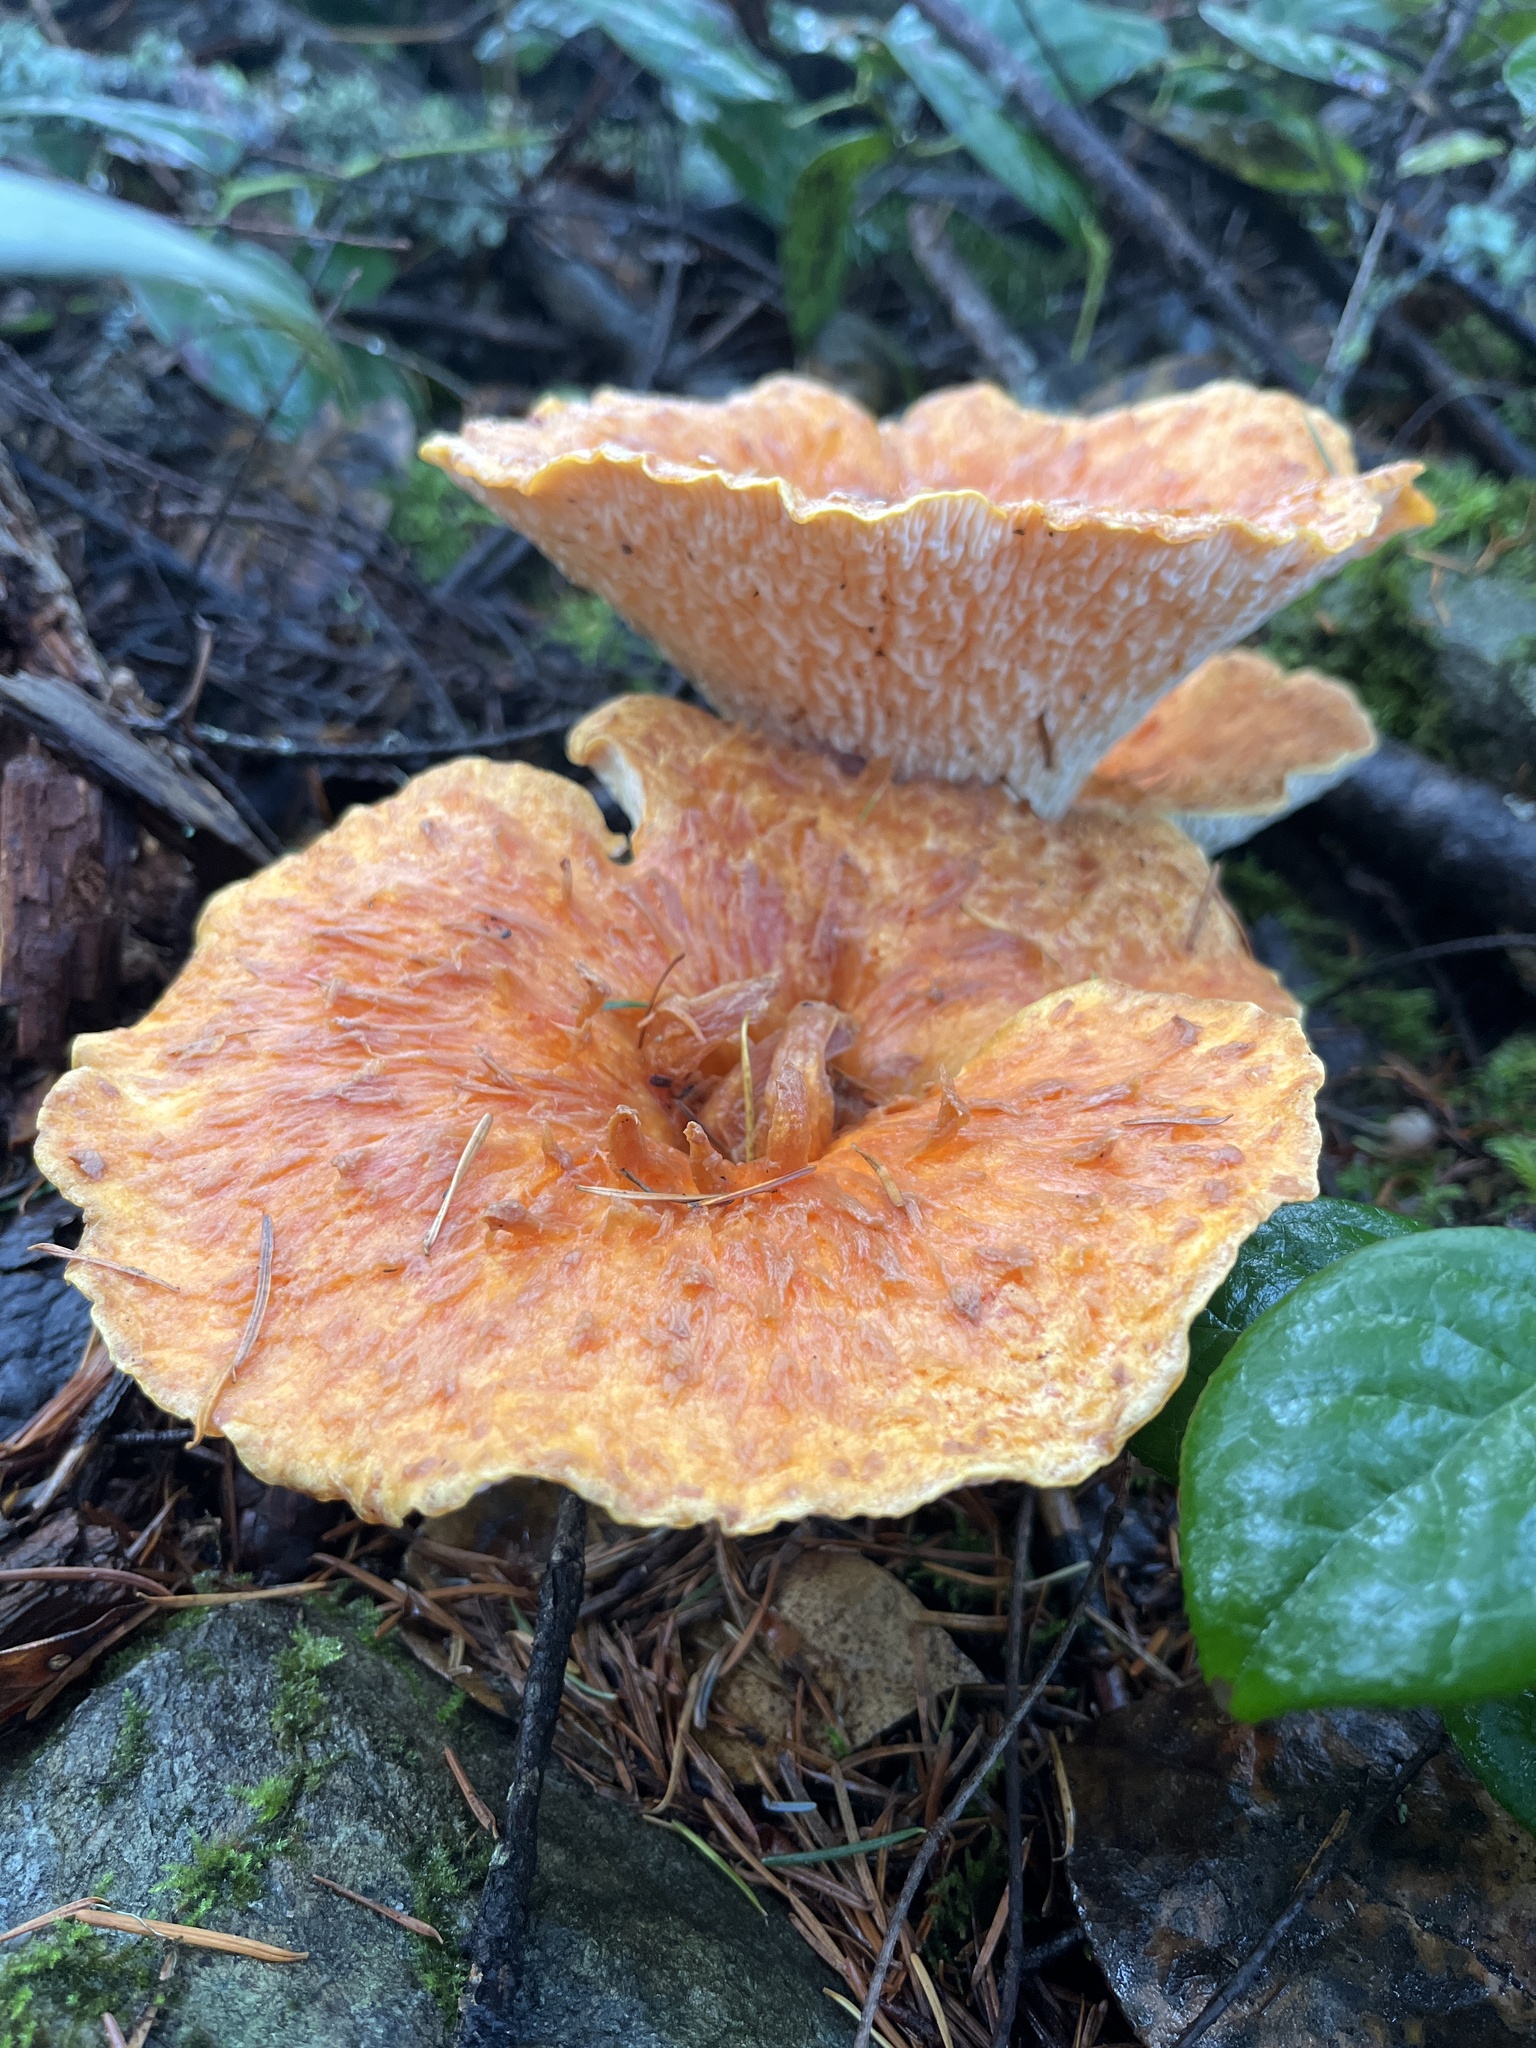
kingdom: Fungi
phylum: Basidiomycota
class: Agaricomycetes
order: Gomphales
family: Gomphaceae
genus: Turbinellus
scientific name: Turbinellus floccosus
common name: Scaly chanterelle
